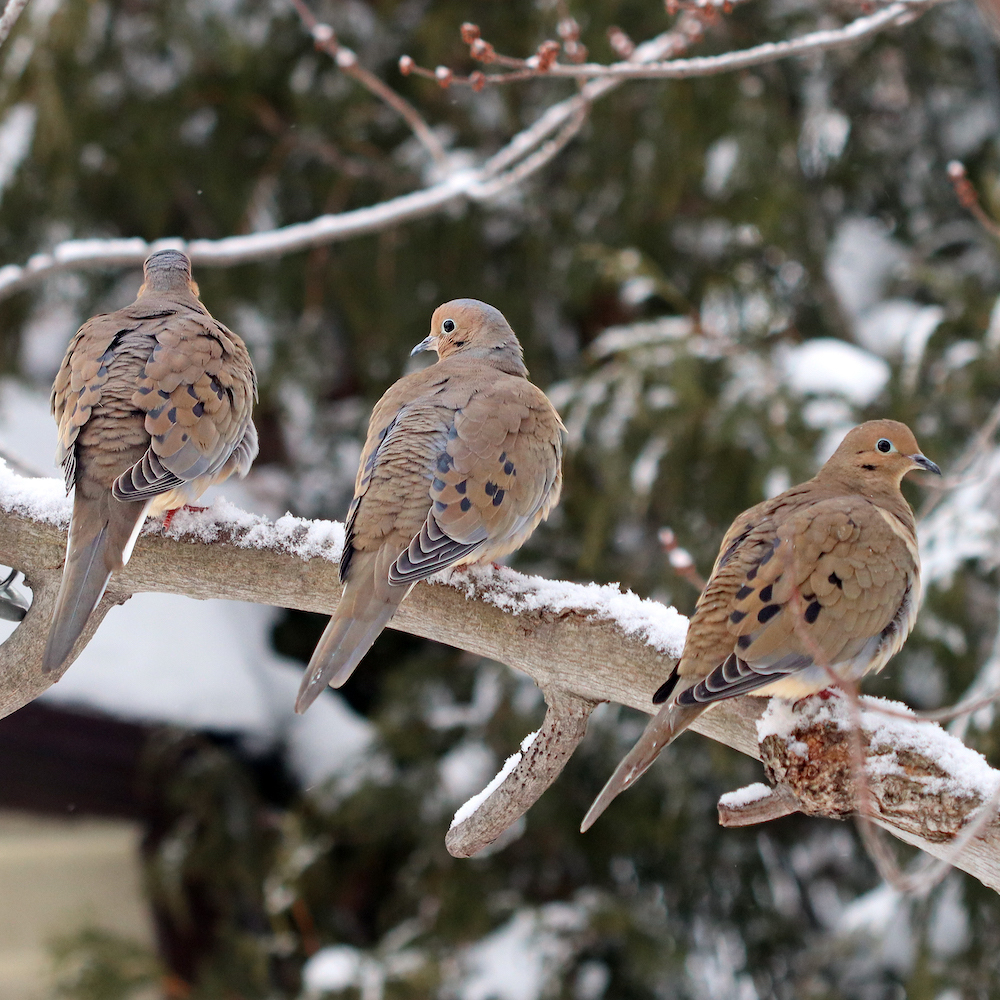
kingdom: Animalia
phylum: Chordata
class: Aves
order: Columbiformes
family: Columbidae
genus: Zenaida
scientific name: Zenaida macroura
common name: Mourning dove
